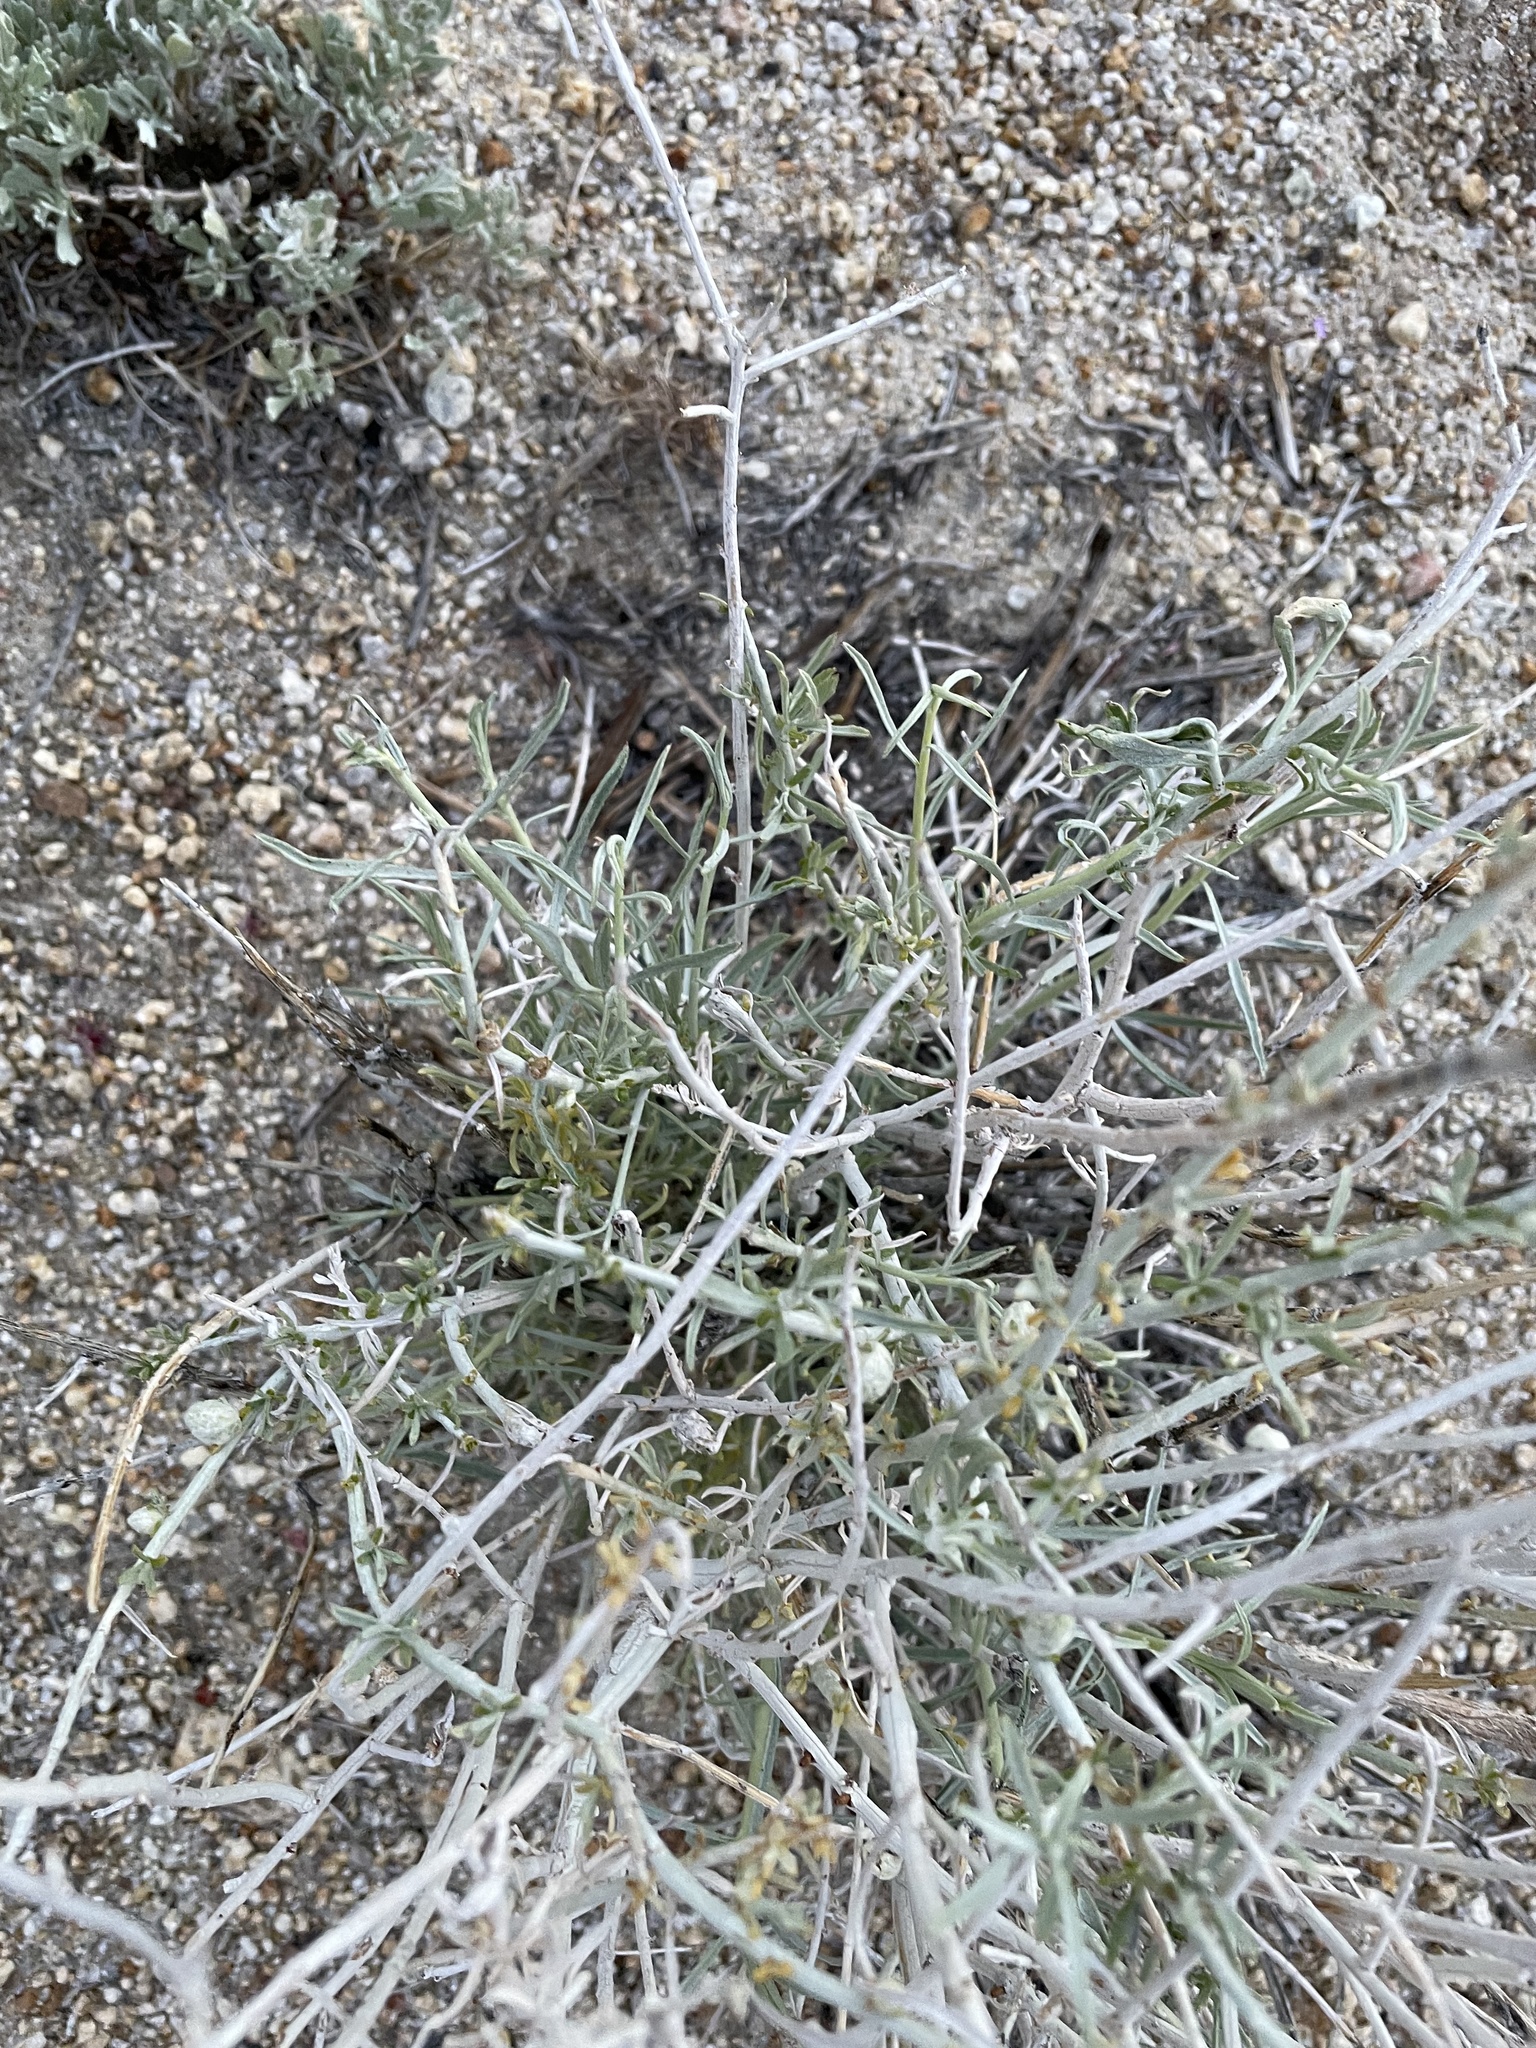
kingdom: Plantae
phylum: Tracheophyta
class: Magnoliopsida
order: Asterales
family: Asteraceae
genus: Ericameria
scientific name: Ericameria nauseosa
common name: Rubber rabbitbrush
